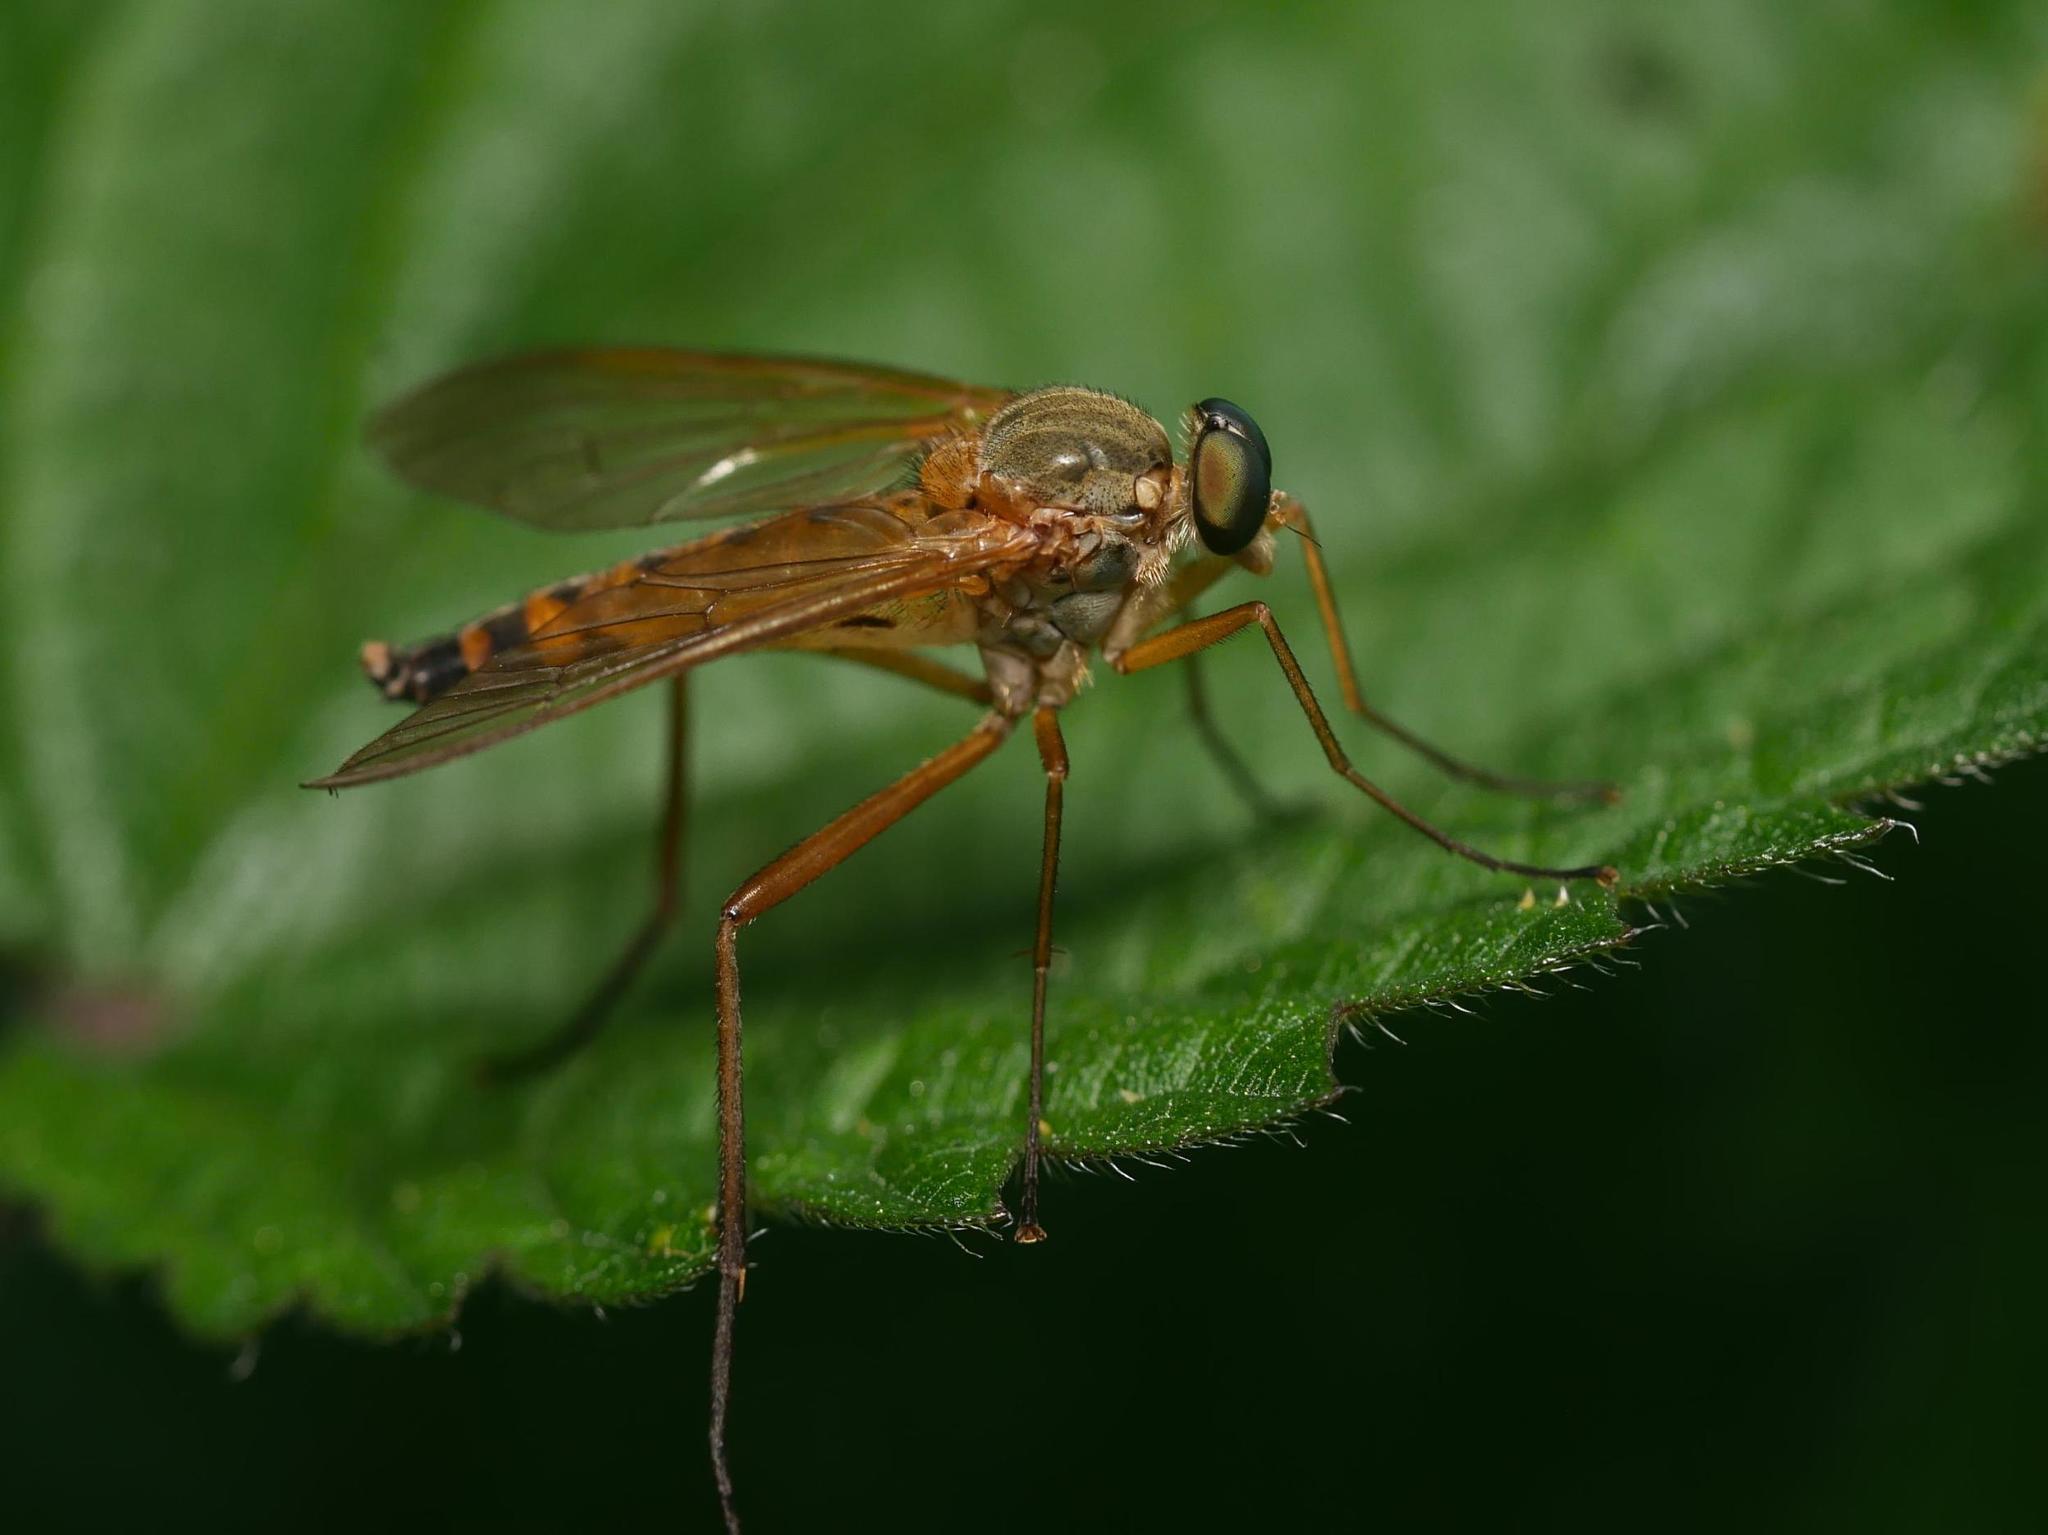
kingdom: Animalia
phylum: Arthropoda
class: Insecta
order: Diptera
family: Rhagionidae
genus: Rhagio
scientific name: Rhagio tringaria
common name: Marsh snipefly
